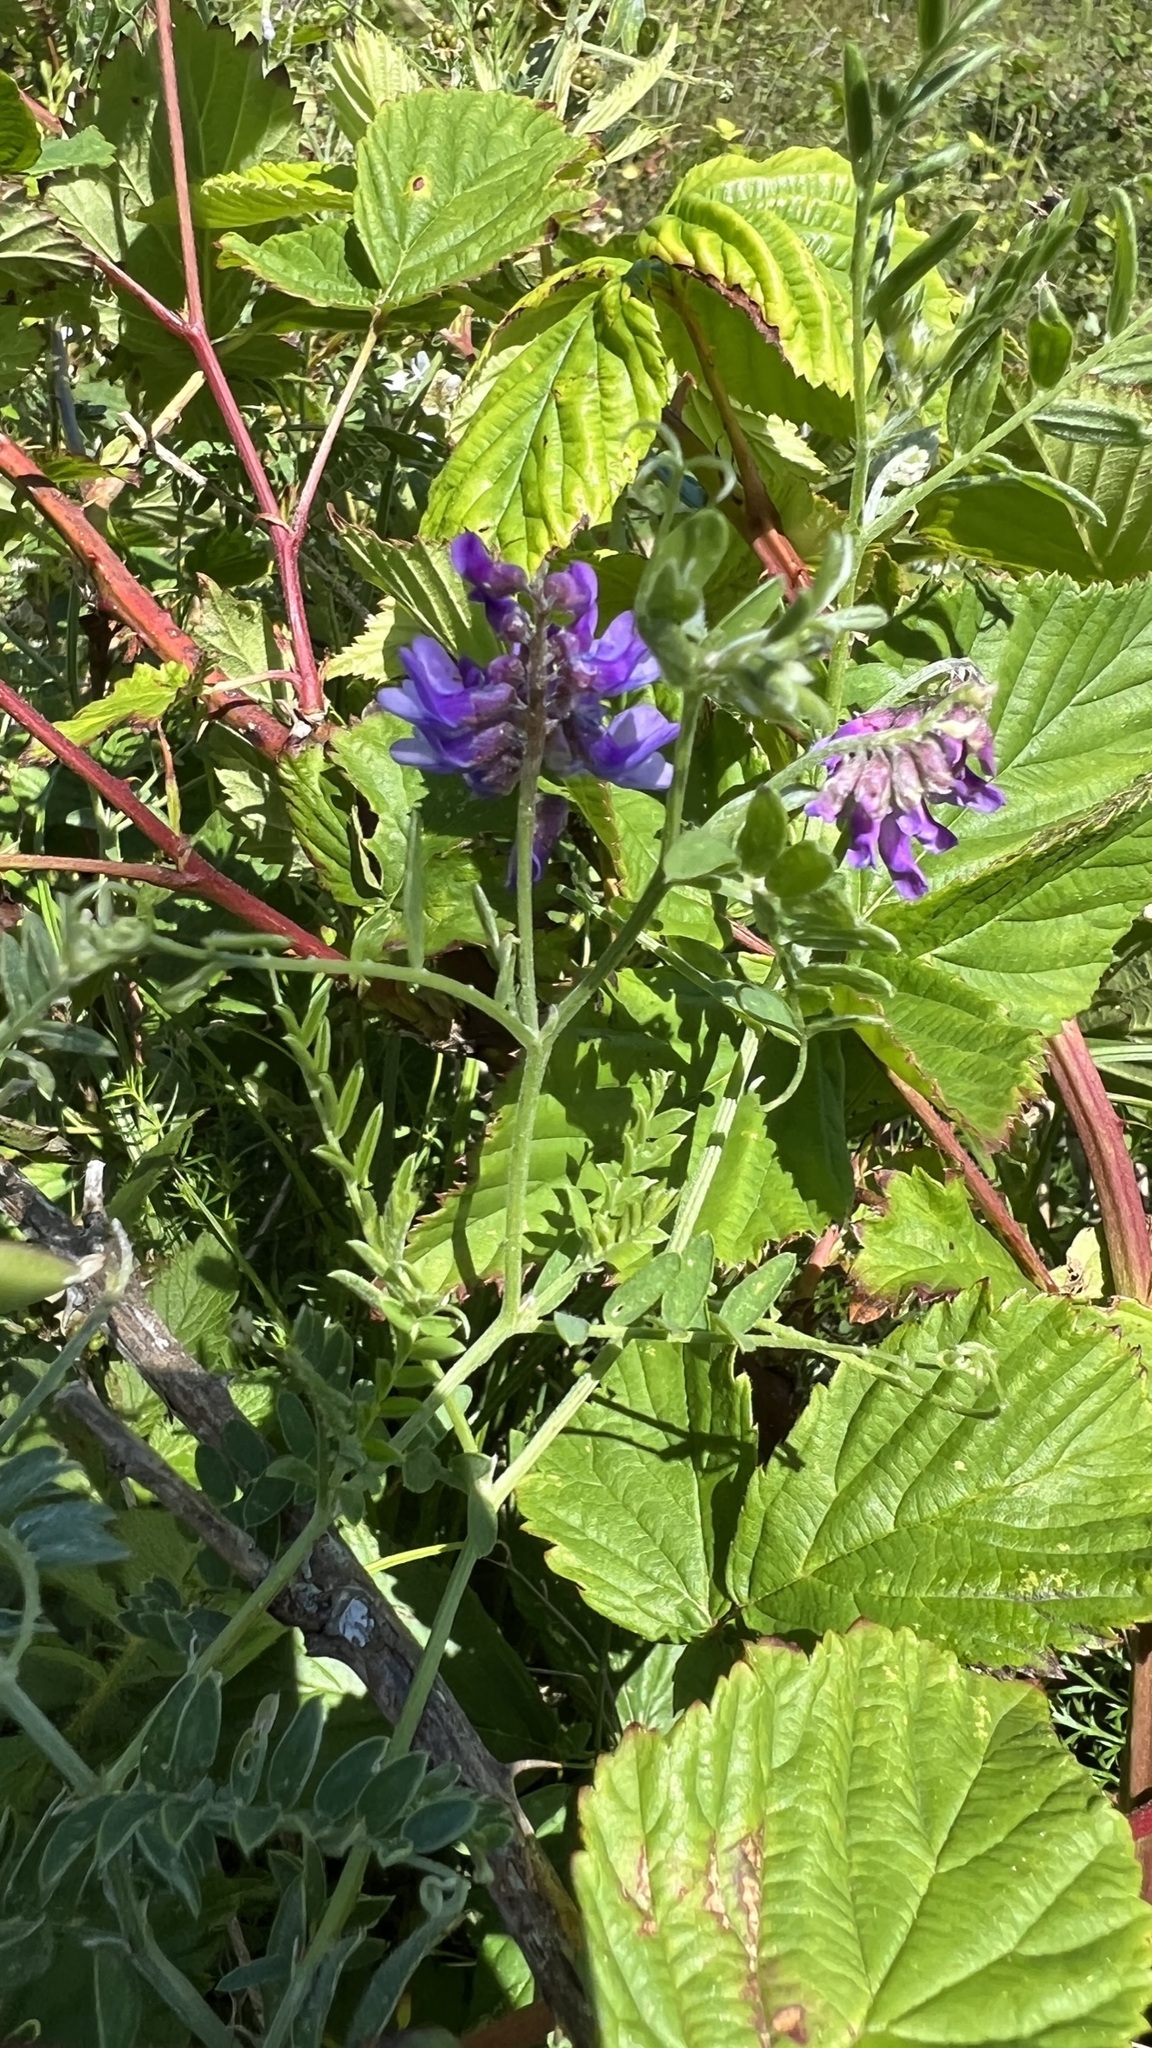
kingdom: Plantae
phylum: Tracheophyta
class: Magnoliopsida
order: Fabales
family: Fabaceae
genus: Vicia
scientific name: Vicia cracca
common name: Bird vetch
